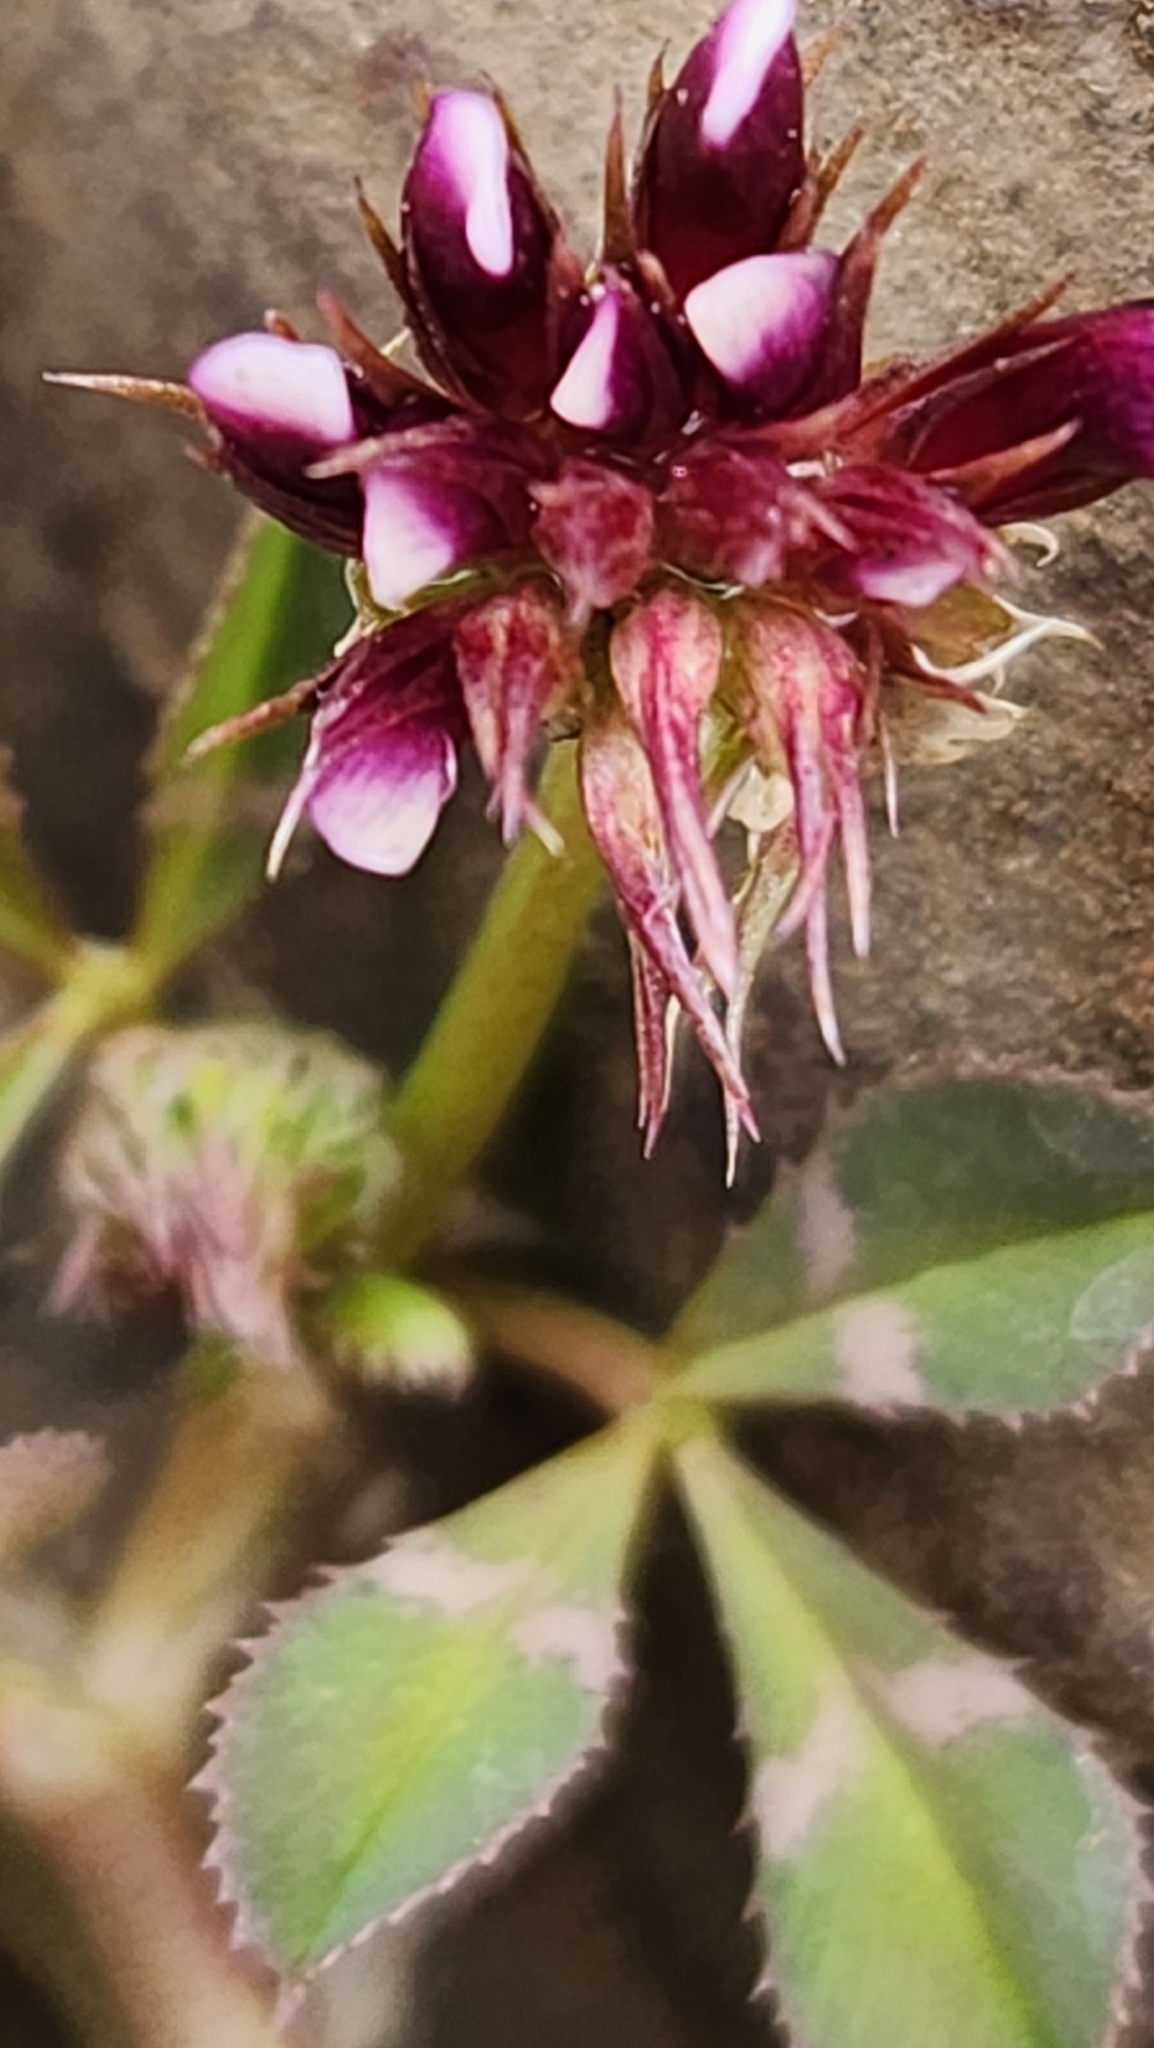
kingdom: Plantae
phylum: Tracheophyta
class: Magnoliopsida
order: Fabales
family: Fabaceae
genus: Trifolium
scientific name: Trifolium variegatum
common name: Whitetip clover
